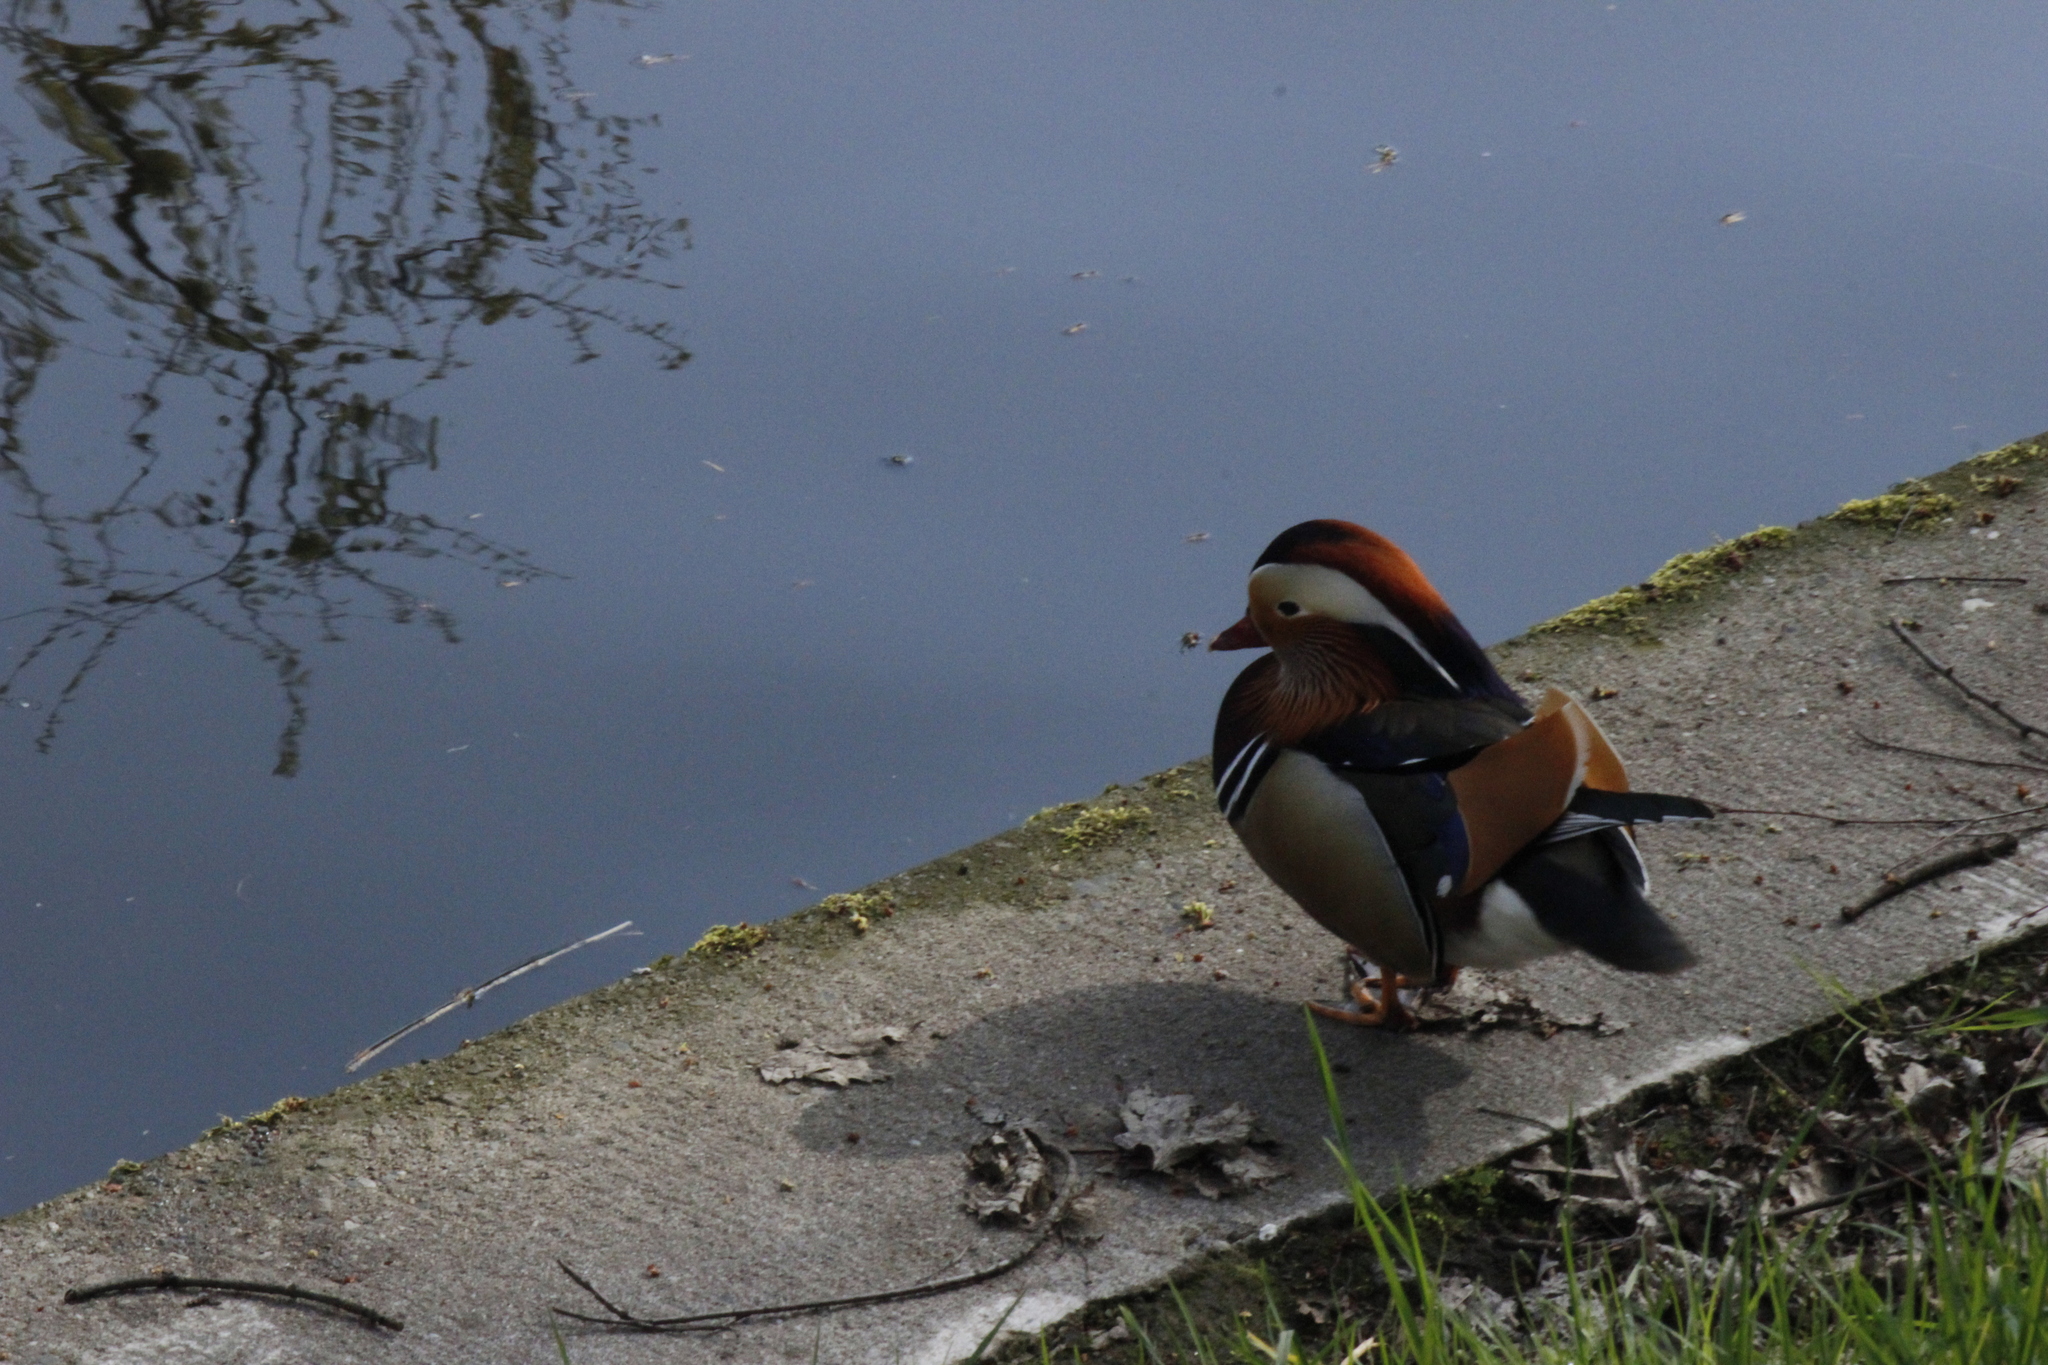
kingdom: Animalia
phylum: Chordata
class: Aves
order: Anseriformes
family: Anatidae
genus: Aix
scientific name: Aix galericulata
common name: Mandarin duck
